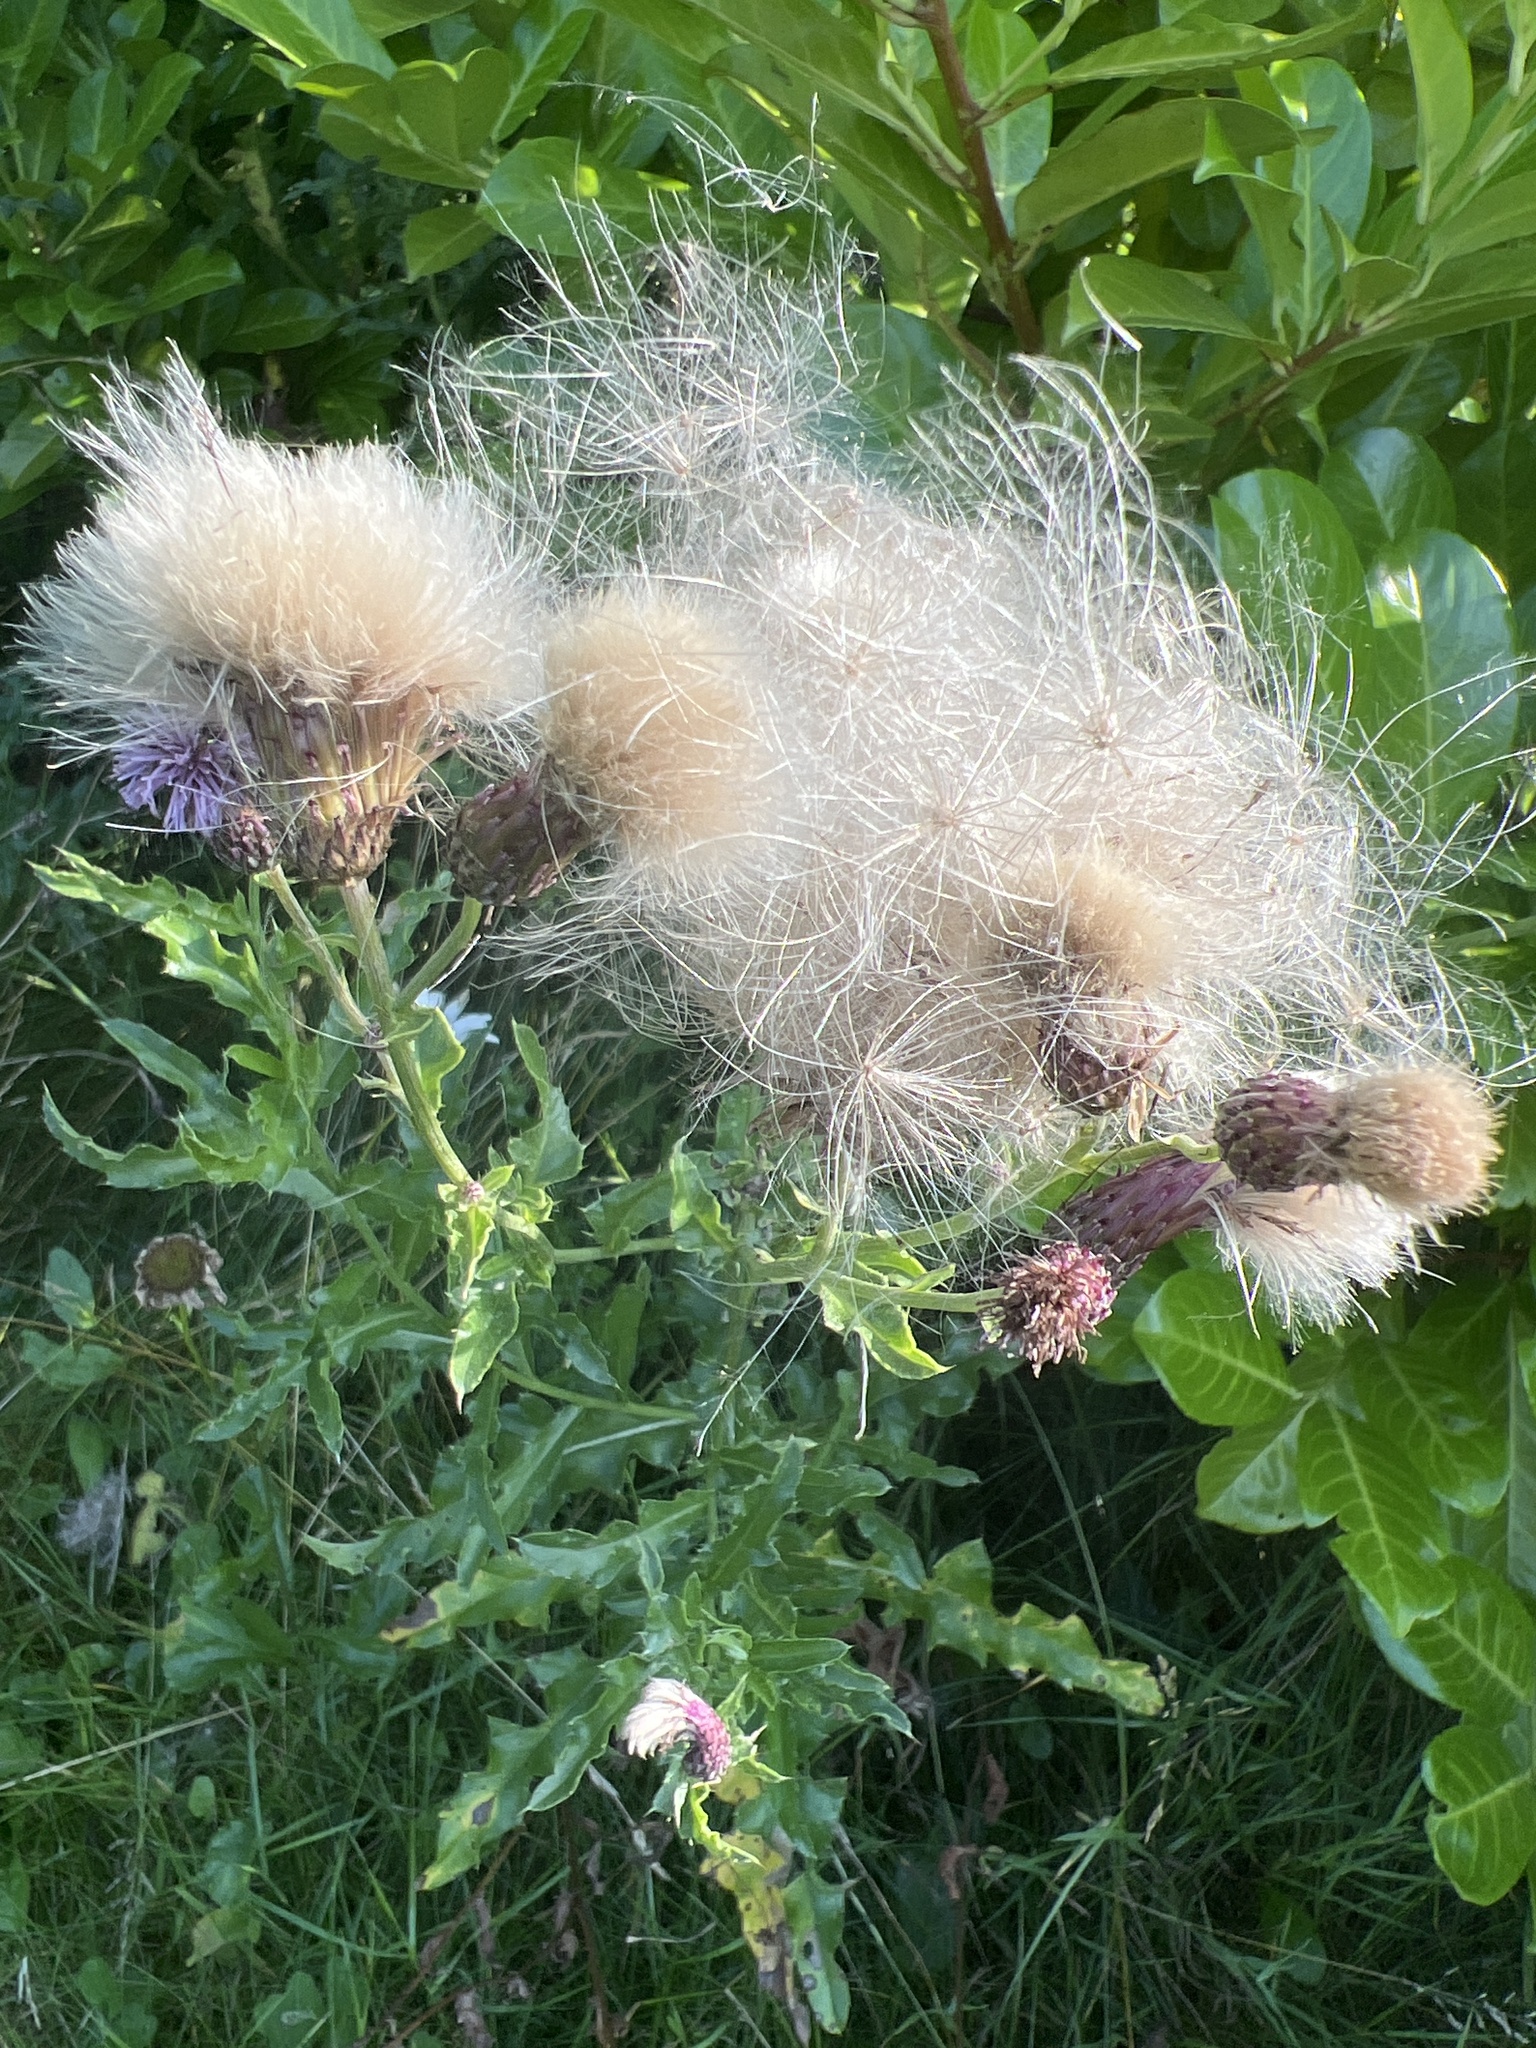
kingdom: Plantae
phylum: Tracheophyta
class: Magnoliopsida
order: Asterales
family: Asteraceae
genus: Cirsium
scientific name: Cirsium arvense
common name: Creeping thistle
